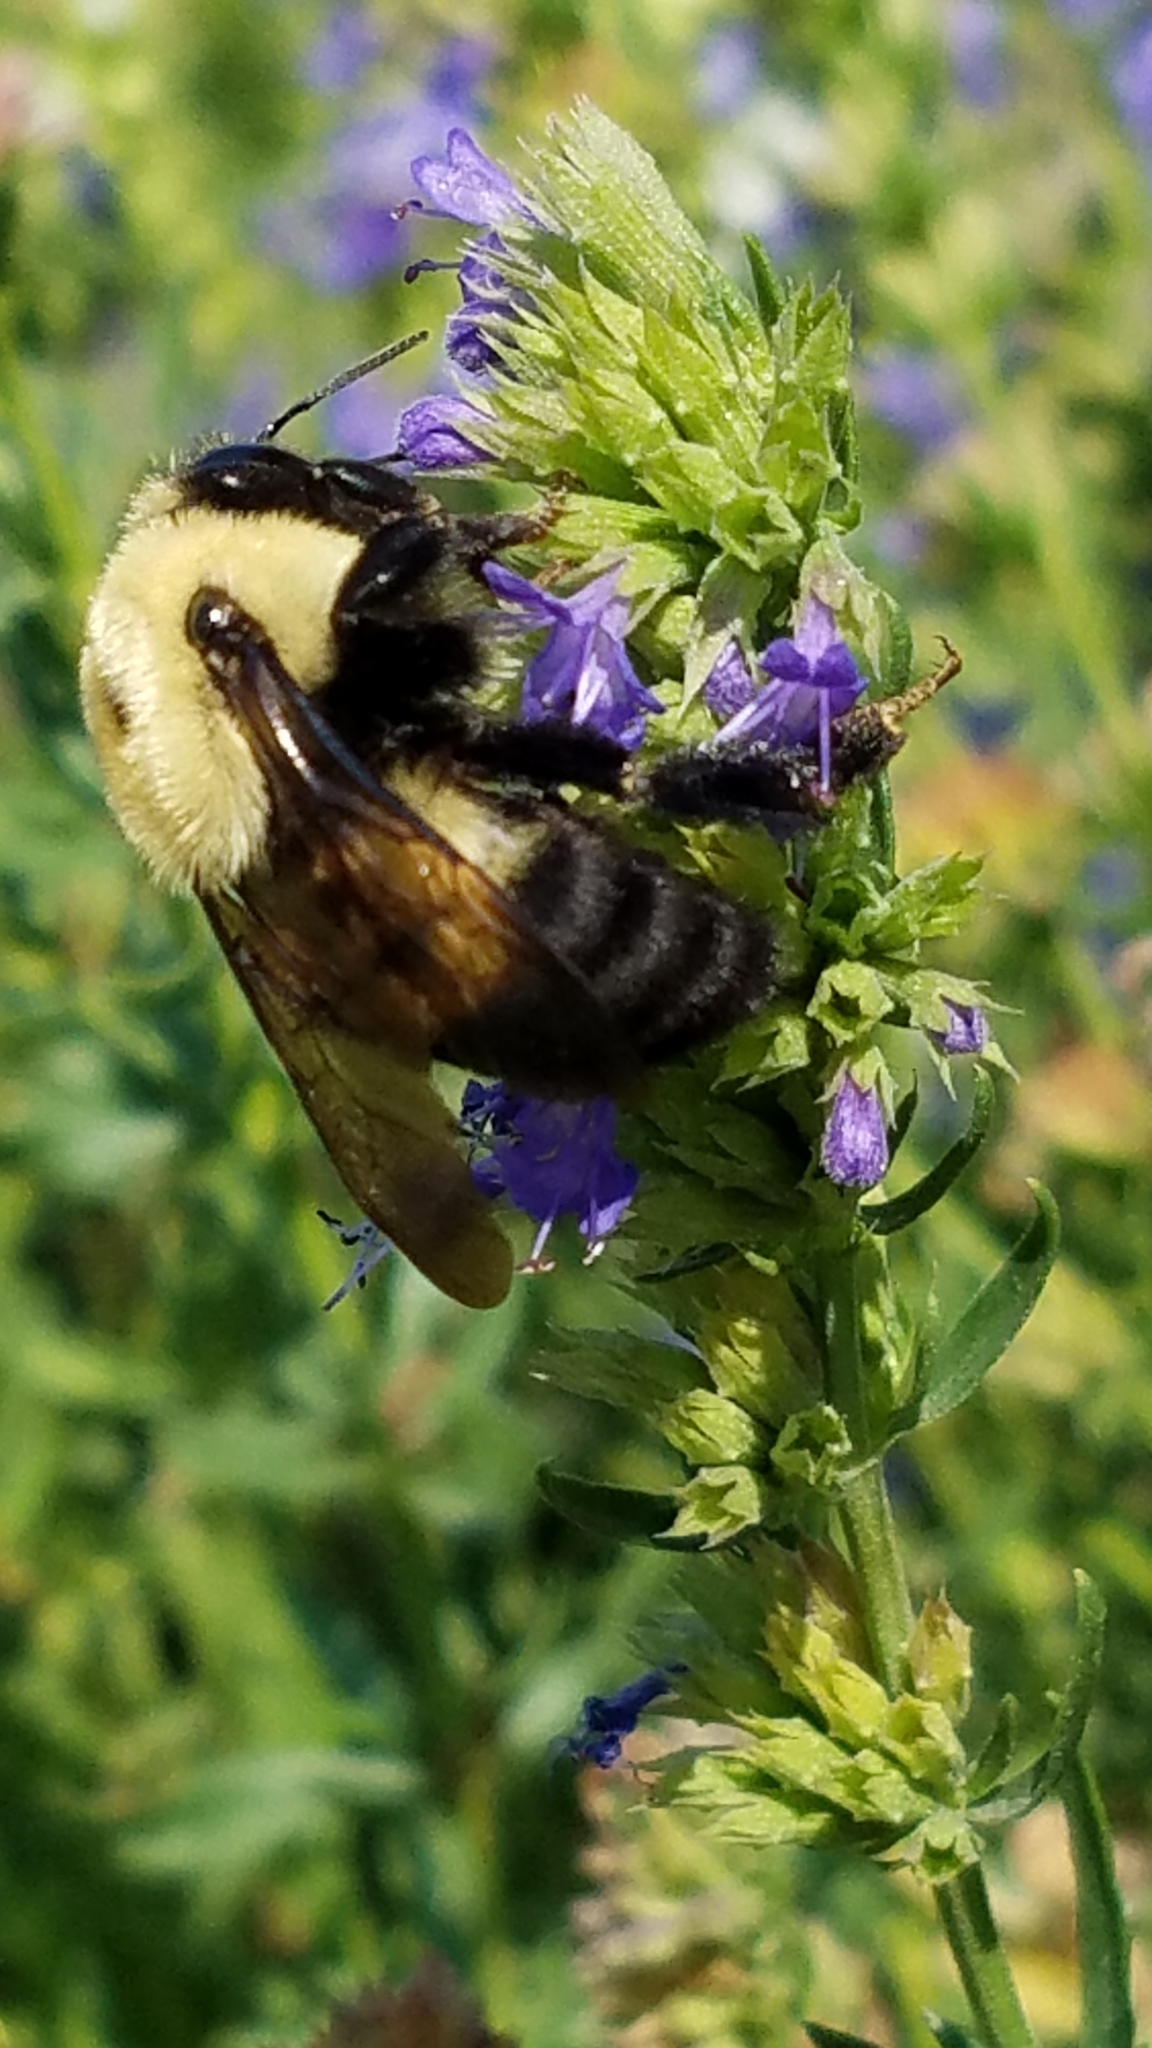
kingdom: Animalia
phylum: Arthropoda
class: Insecta
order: Hymenoptera
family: Apidae
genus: Bombus
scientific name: Bombus griseocollis
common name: Brown-belted bumble bee
